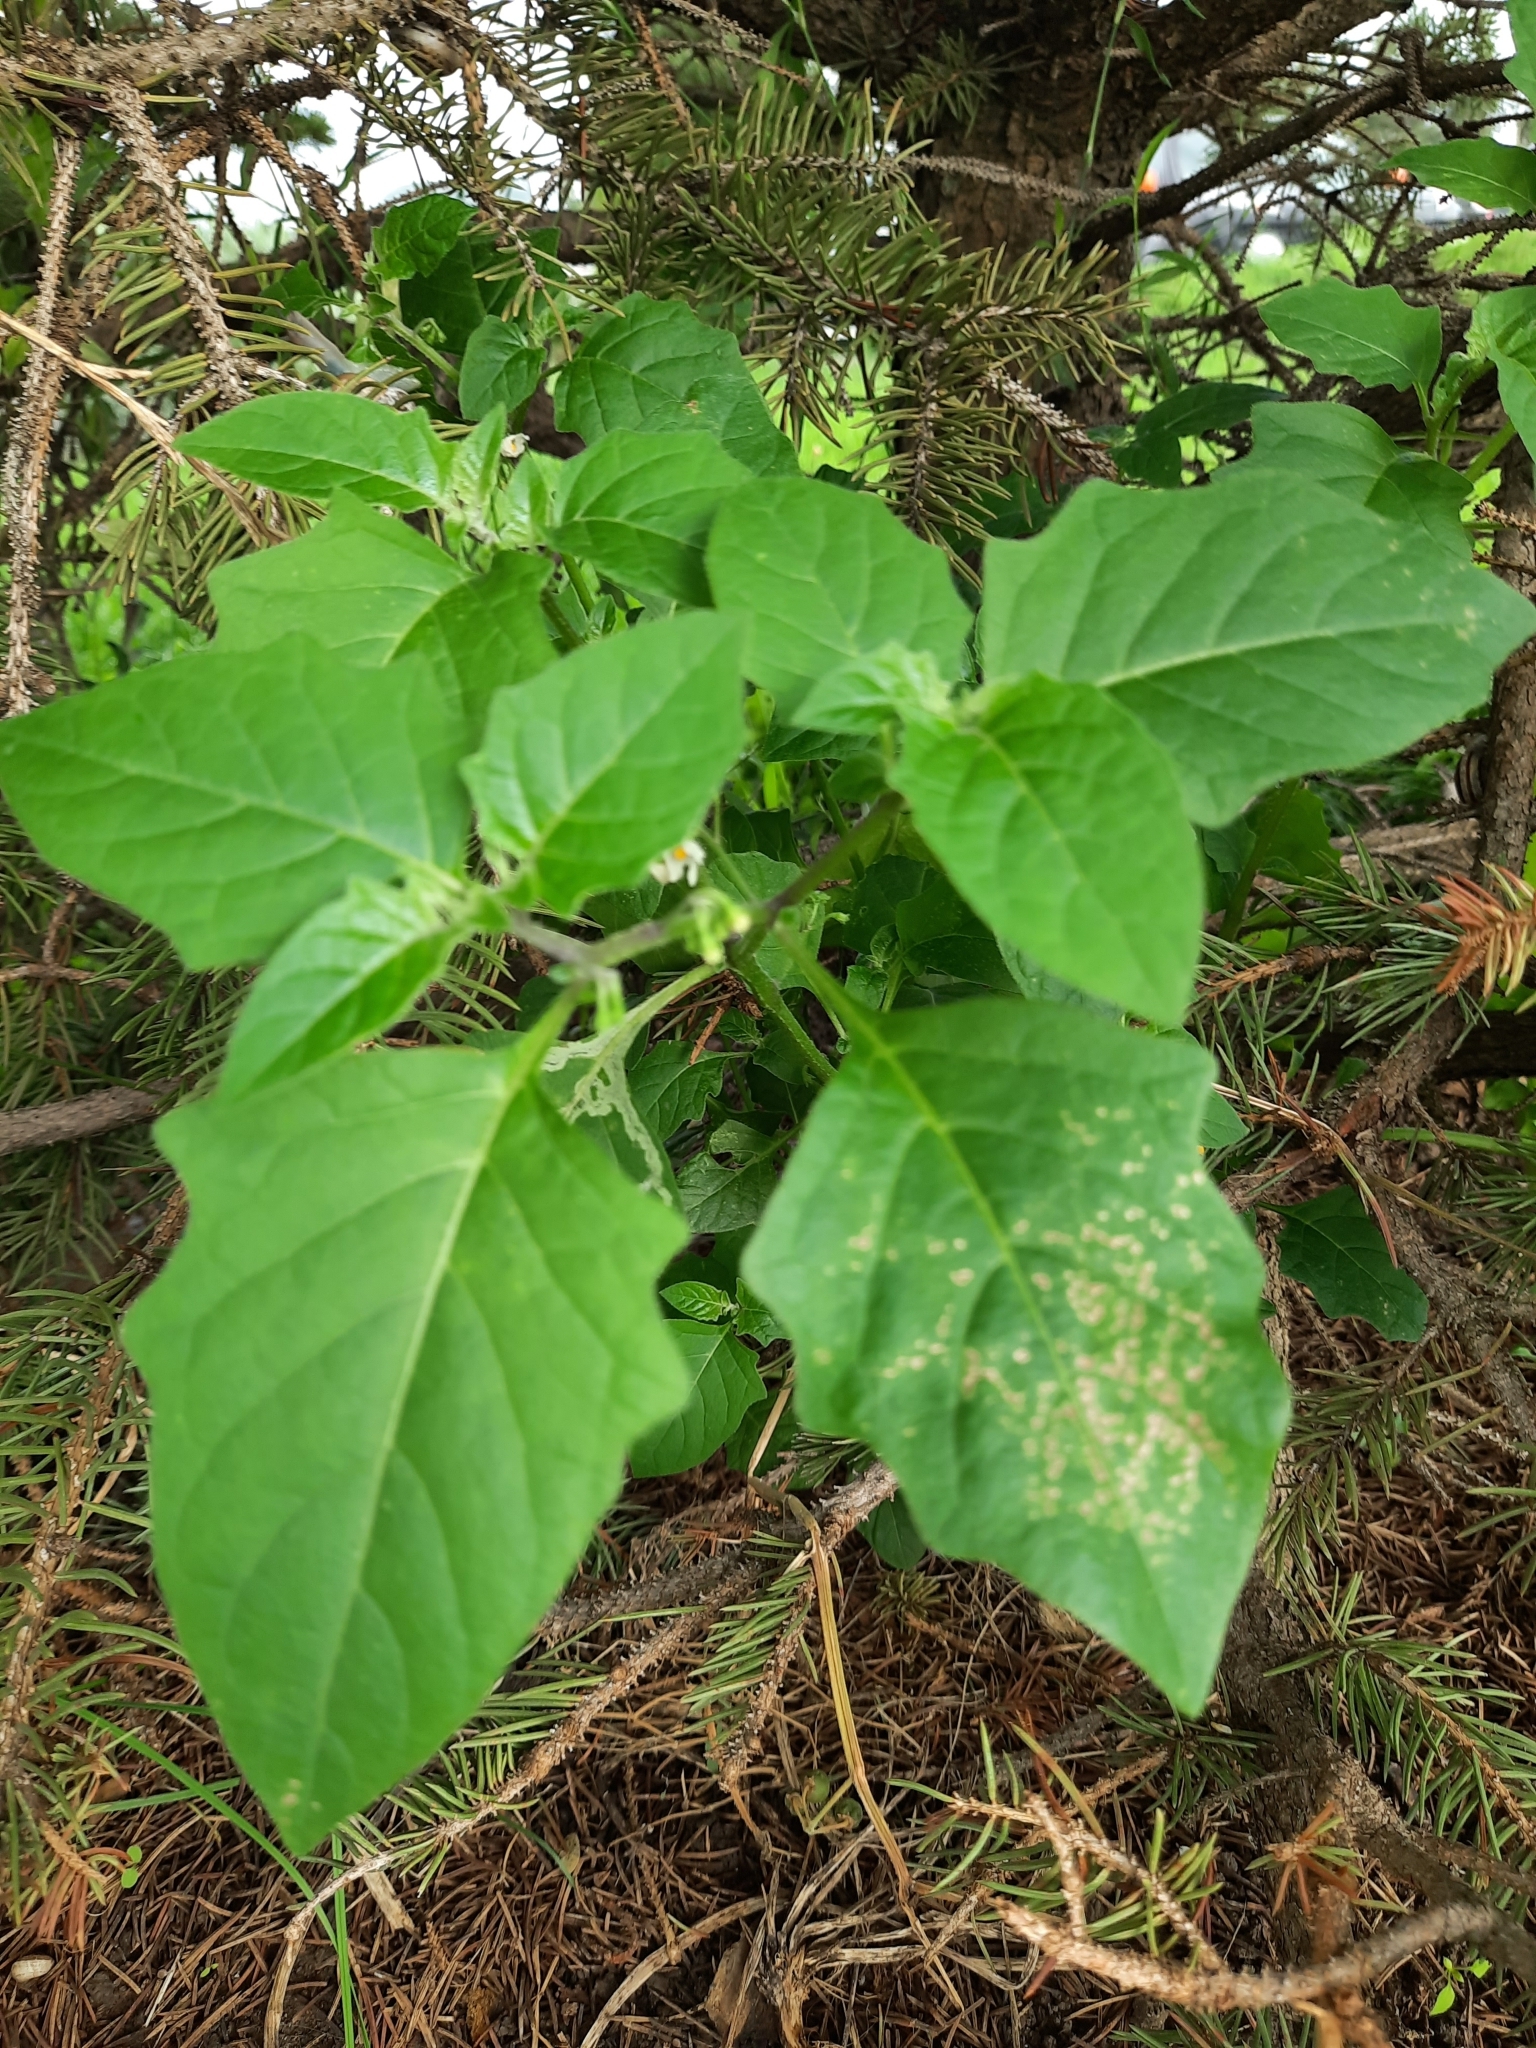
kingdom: Plantae
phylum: Tracheophyta
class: Magnoliopsida
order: Solanales
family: Solanaceae
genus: Solanum
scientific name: Solanum nigrum
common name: Black nightshade
